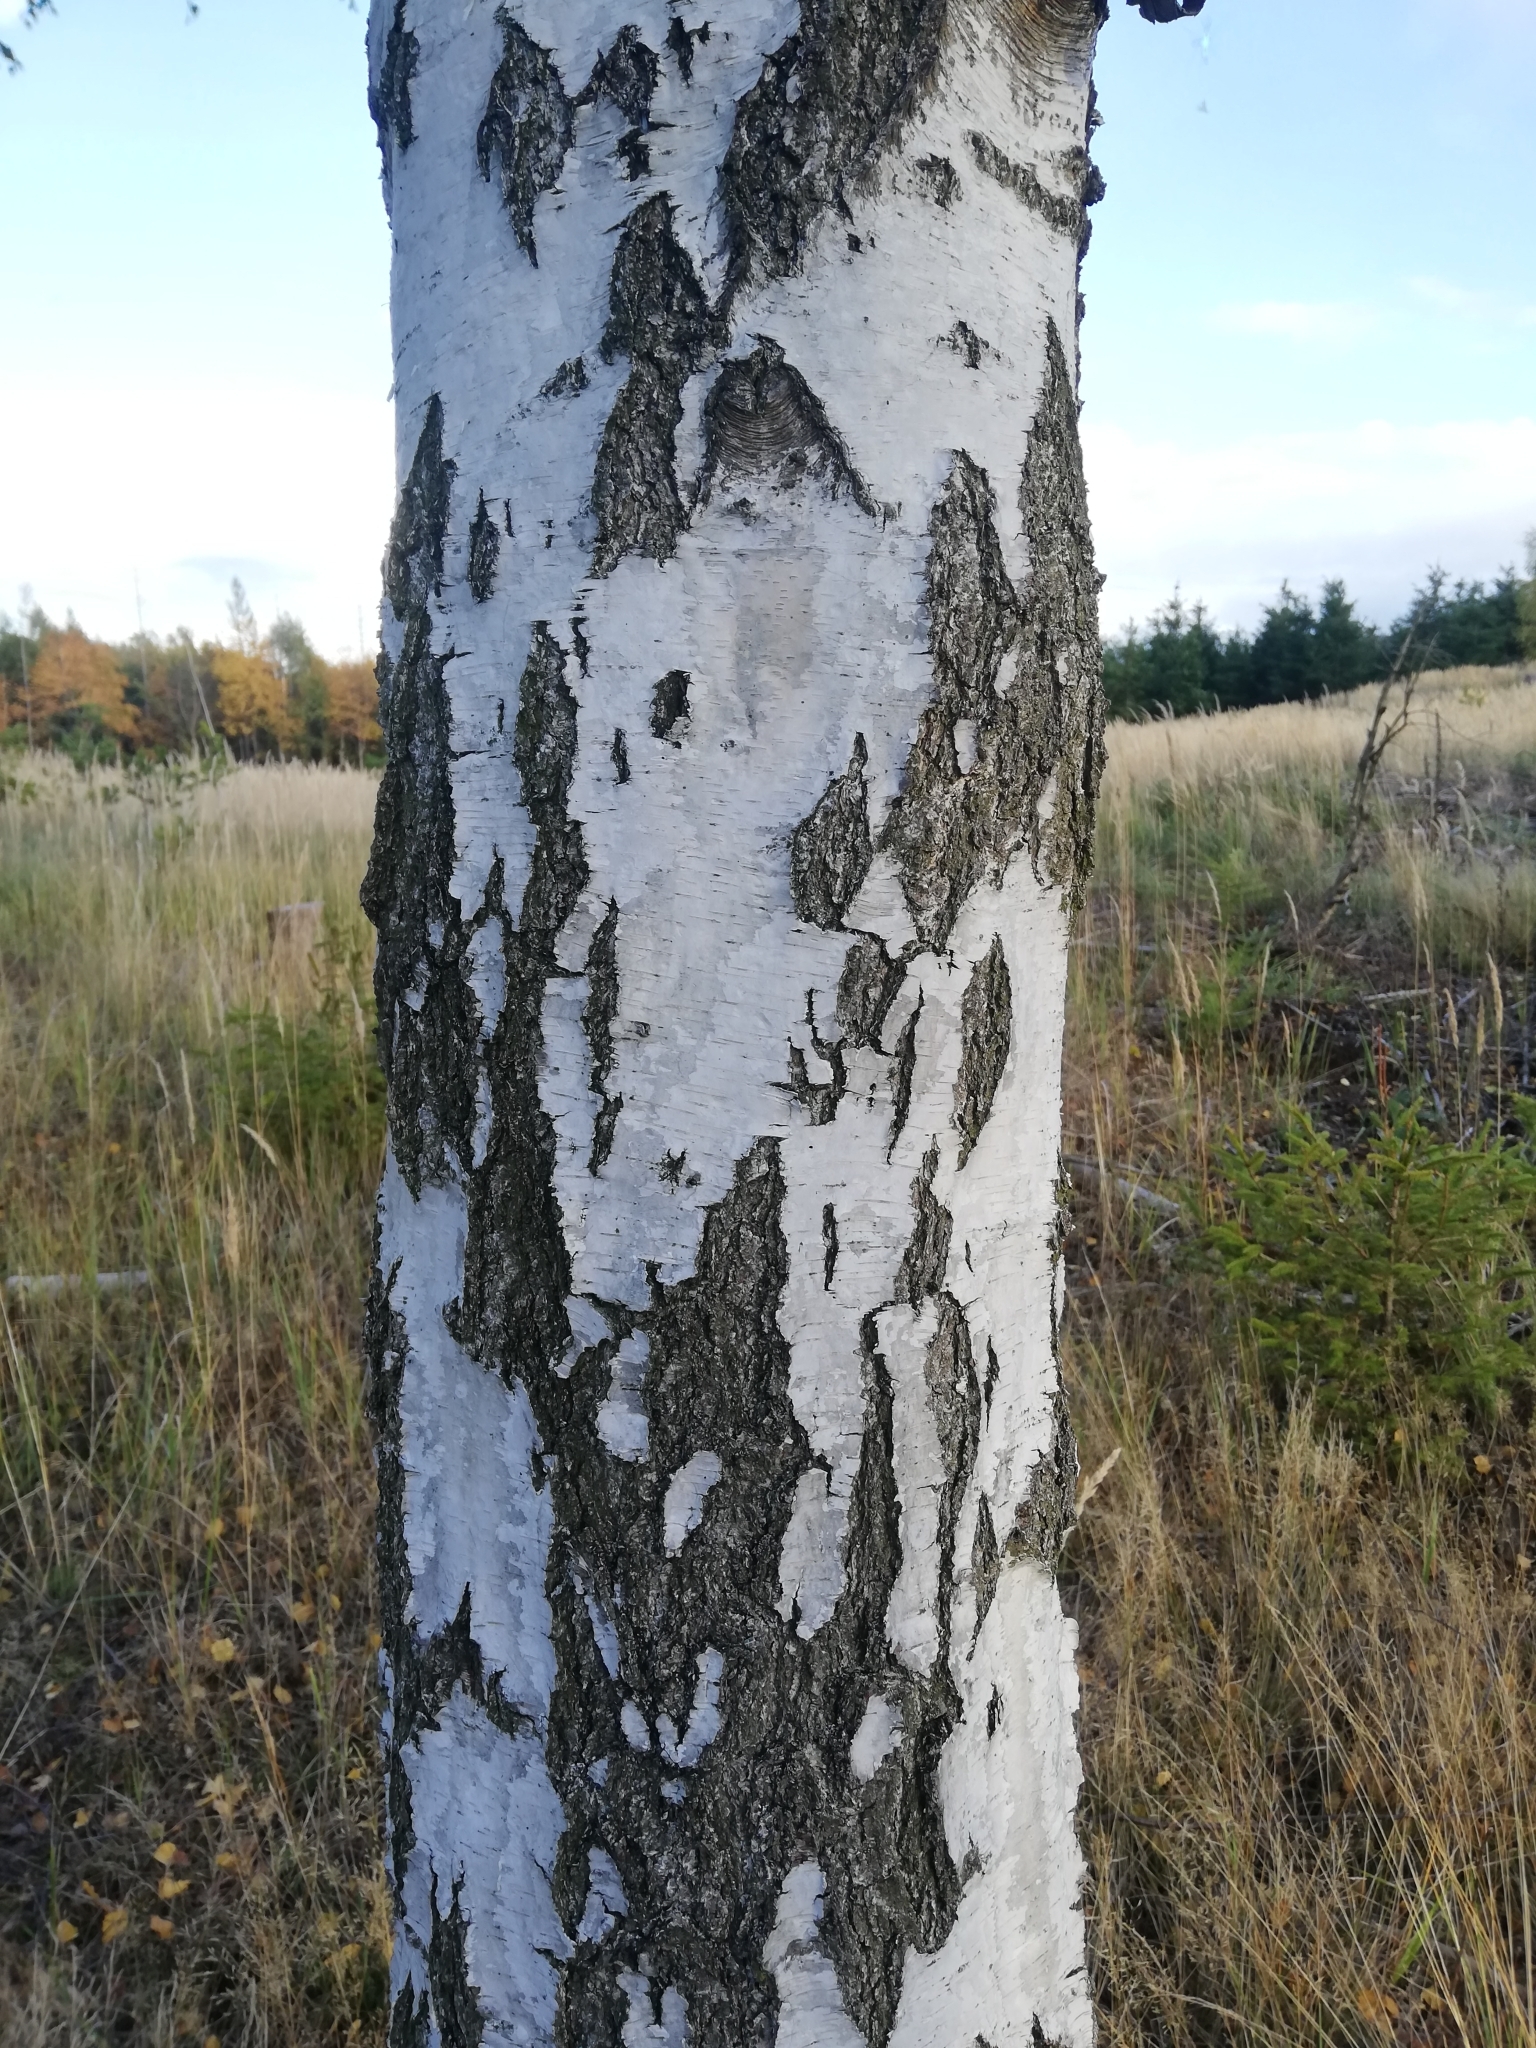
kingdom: Plantae
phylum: Tracheophyta
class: Magnoliopsida
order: Fagales
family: Betulaceae
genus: Betula
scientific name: Betula pendula
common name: Silver birch
